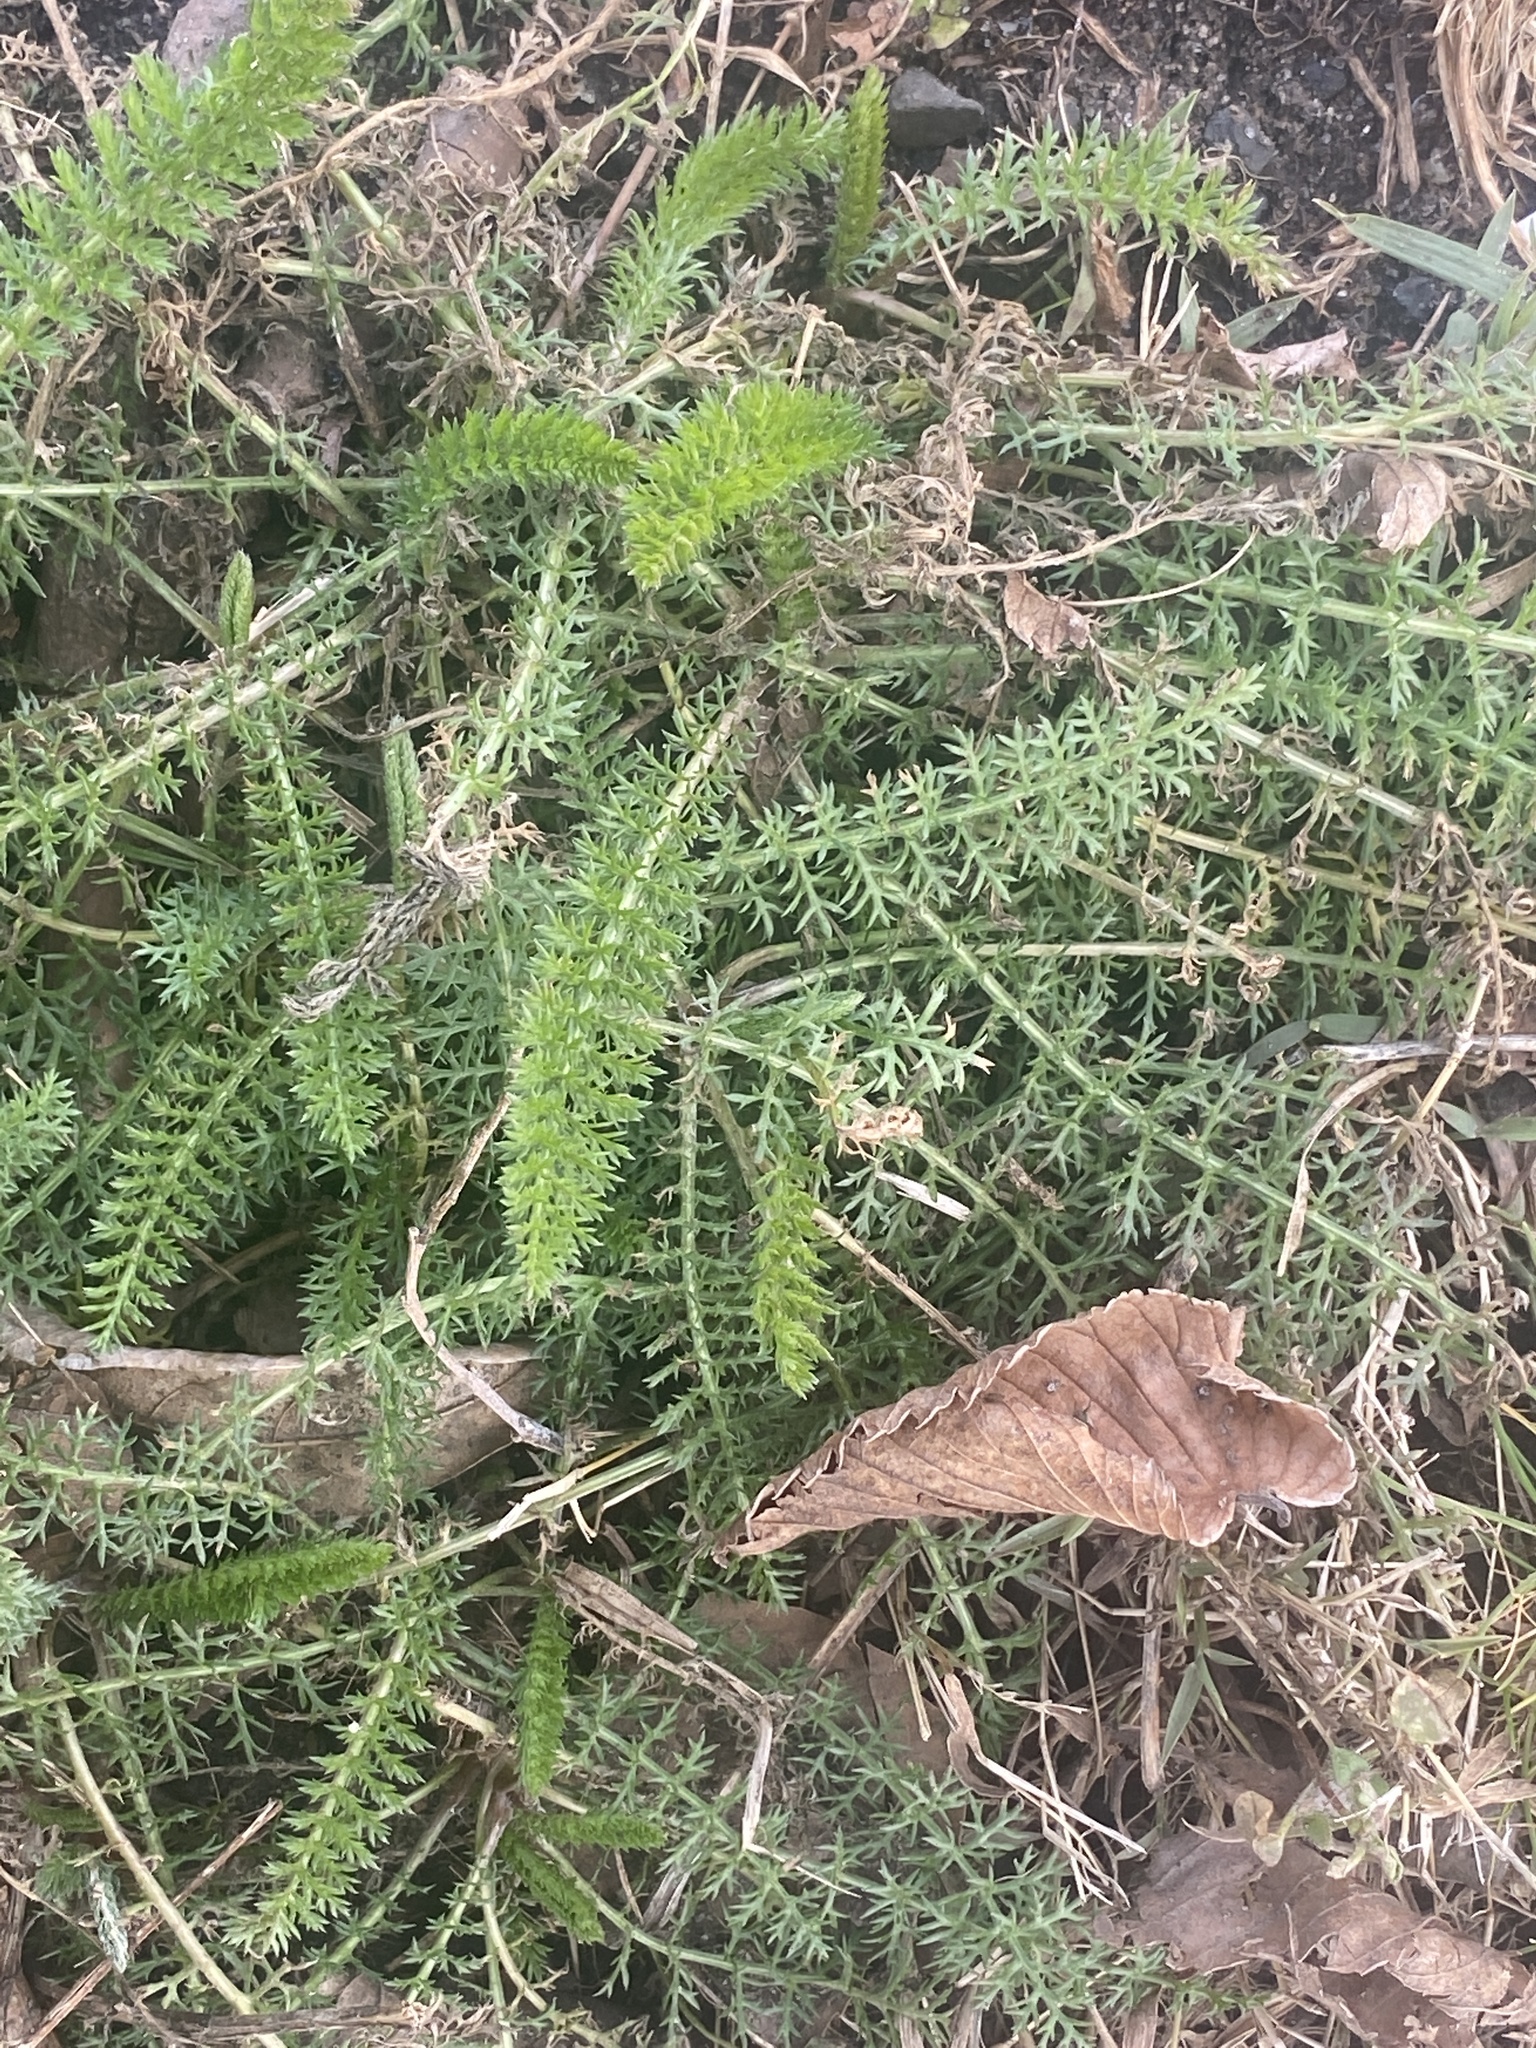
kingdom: Plantae
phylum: Tracheophyta
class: Magnoliopsida
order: Asterales
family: Asteraceae
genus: Achillea
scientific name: Achillea millefolium
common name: Yarrow
